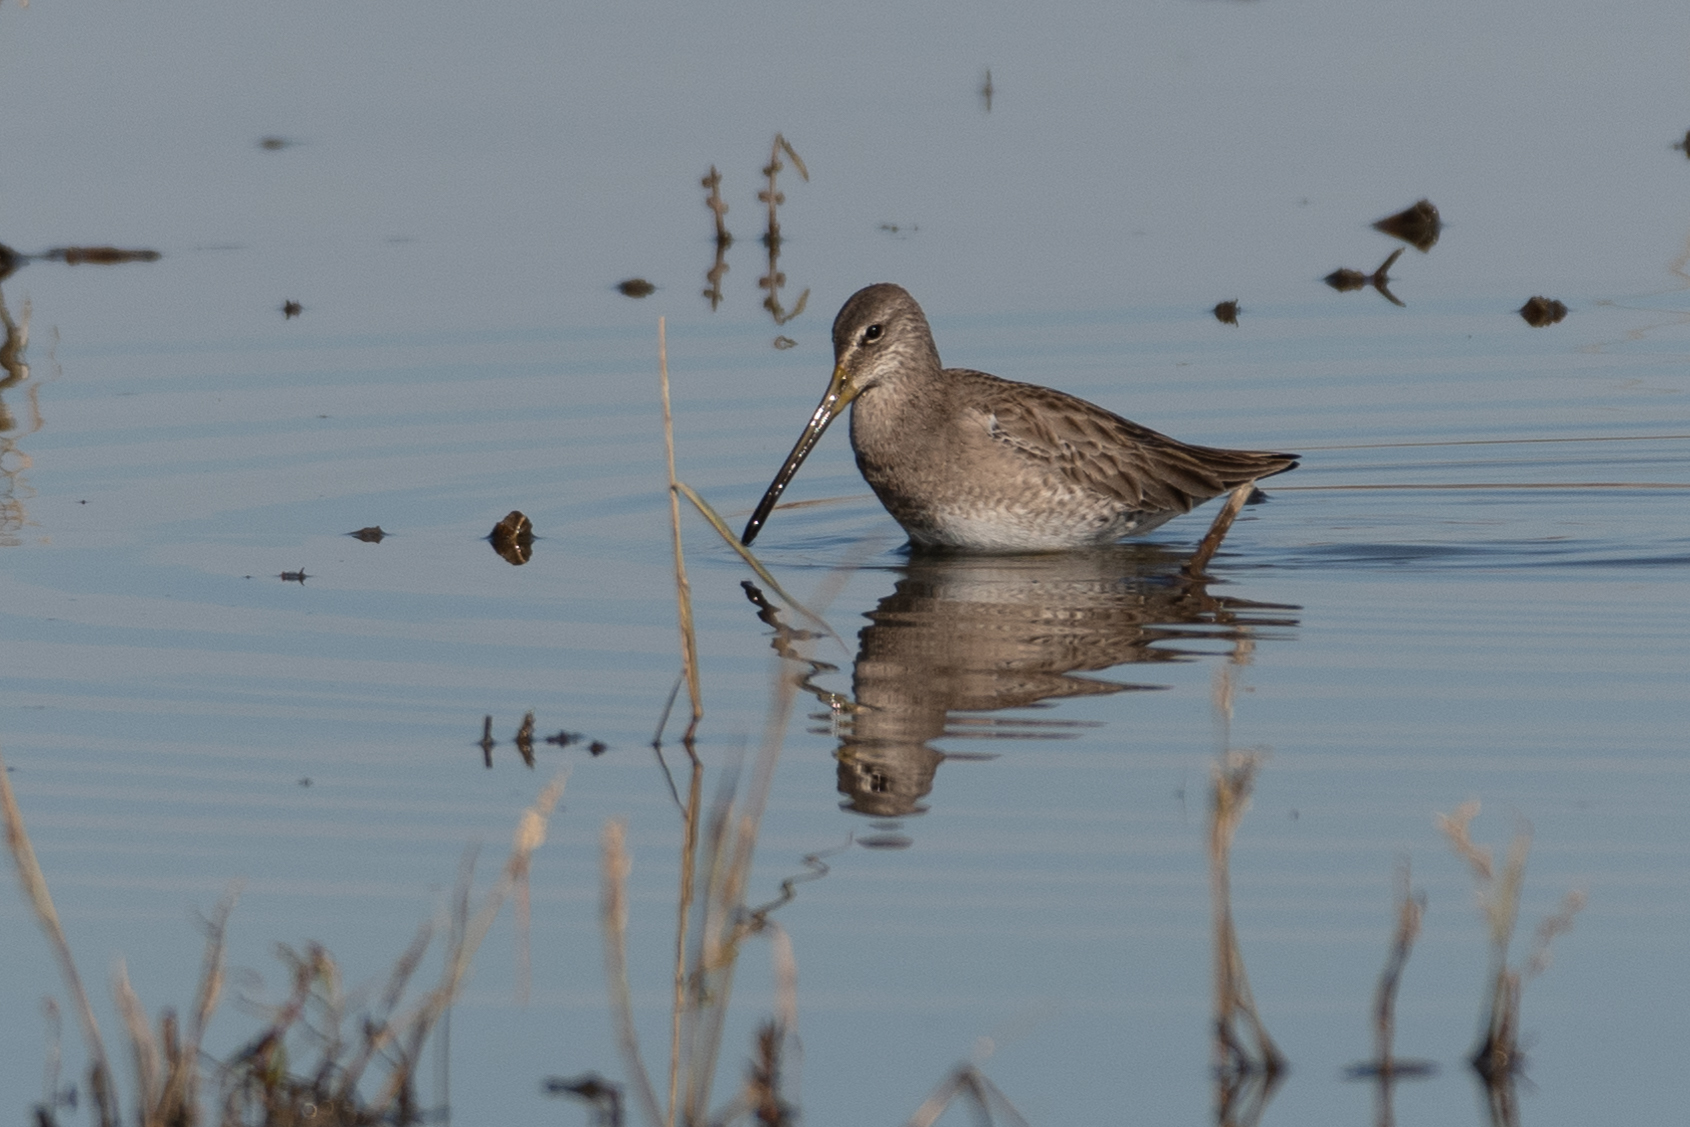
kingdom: Animalia
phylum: Chordata
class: Aves
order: Charadriiformes
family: Scolopacidae
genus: Limnodromus
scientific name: Limnodromus scolopaceus
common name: Long-billed dowitcher
